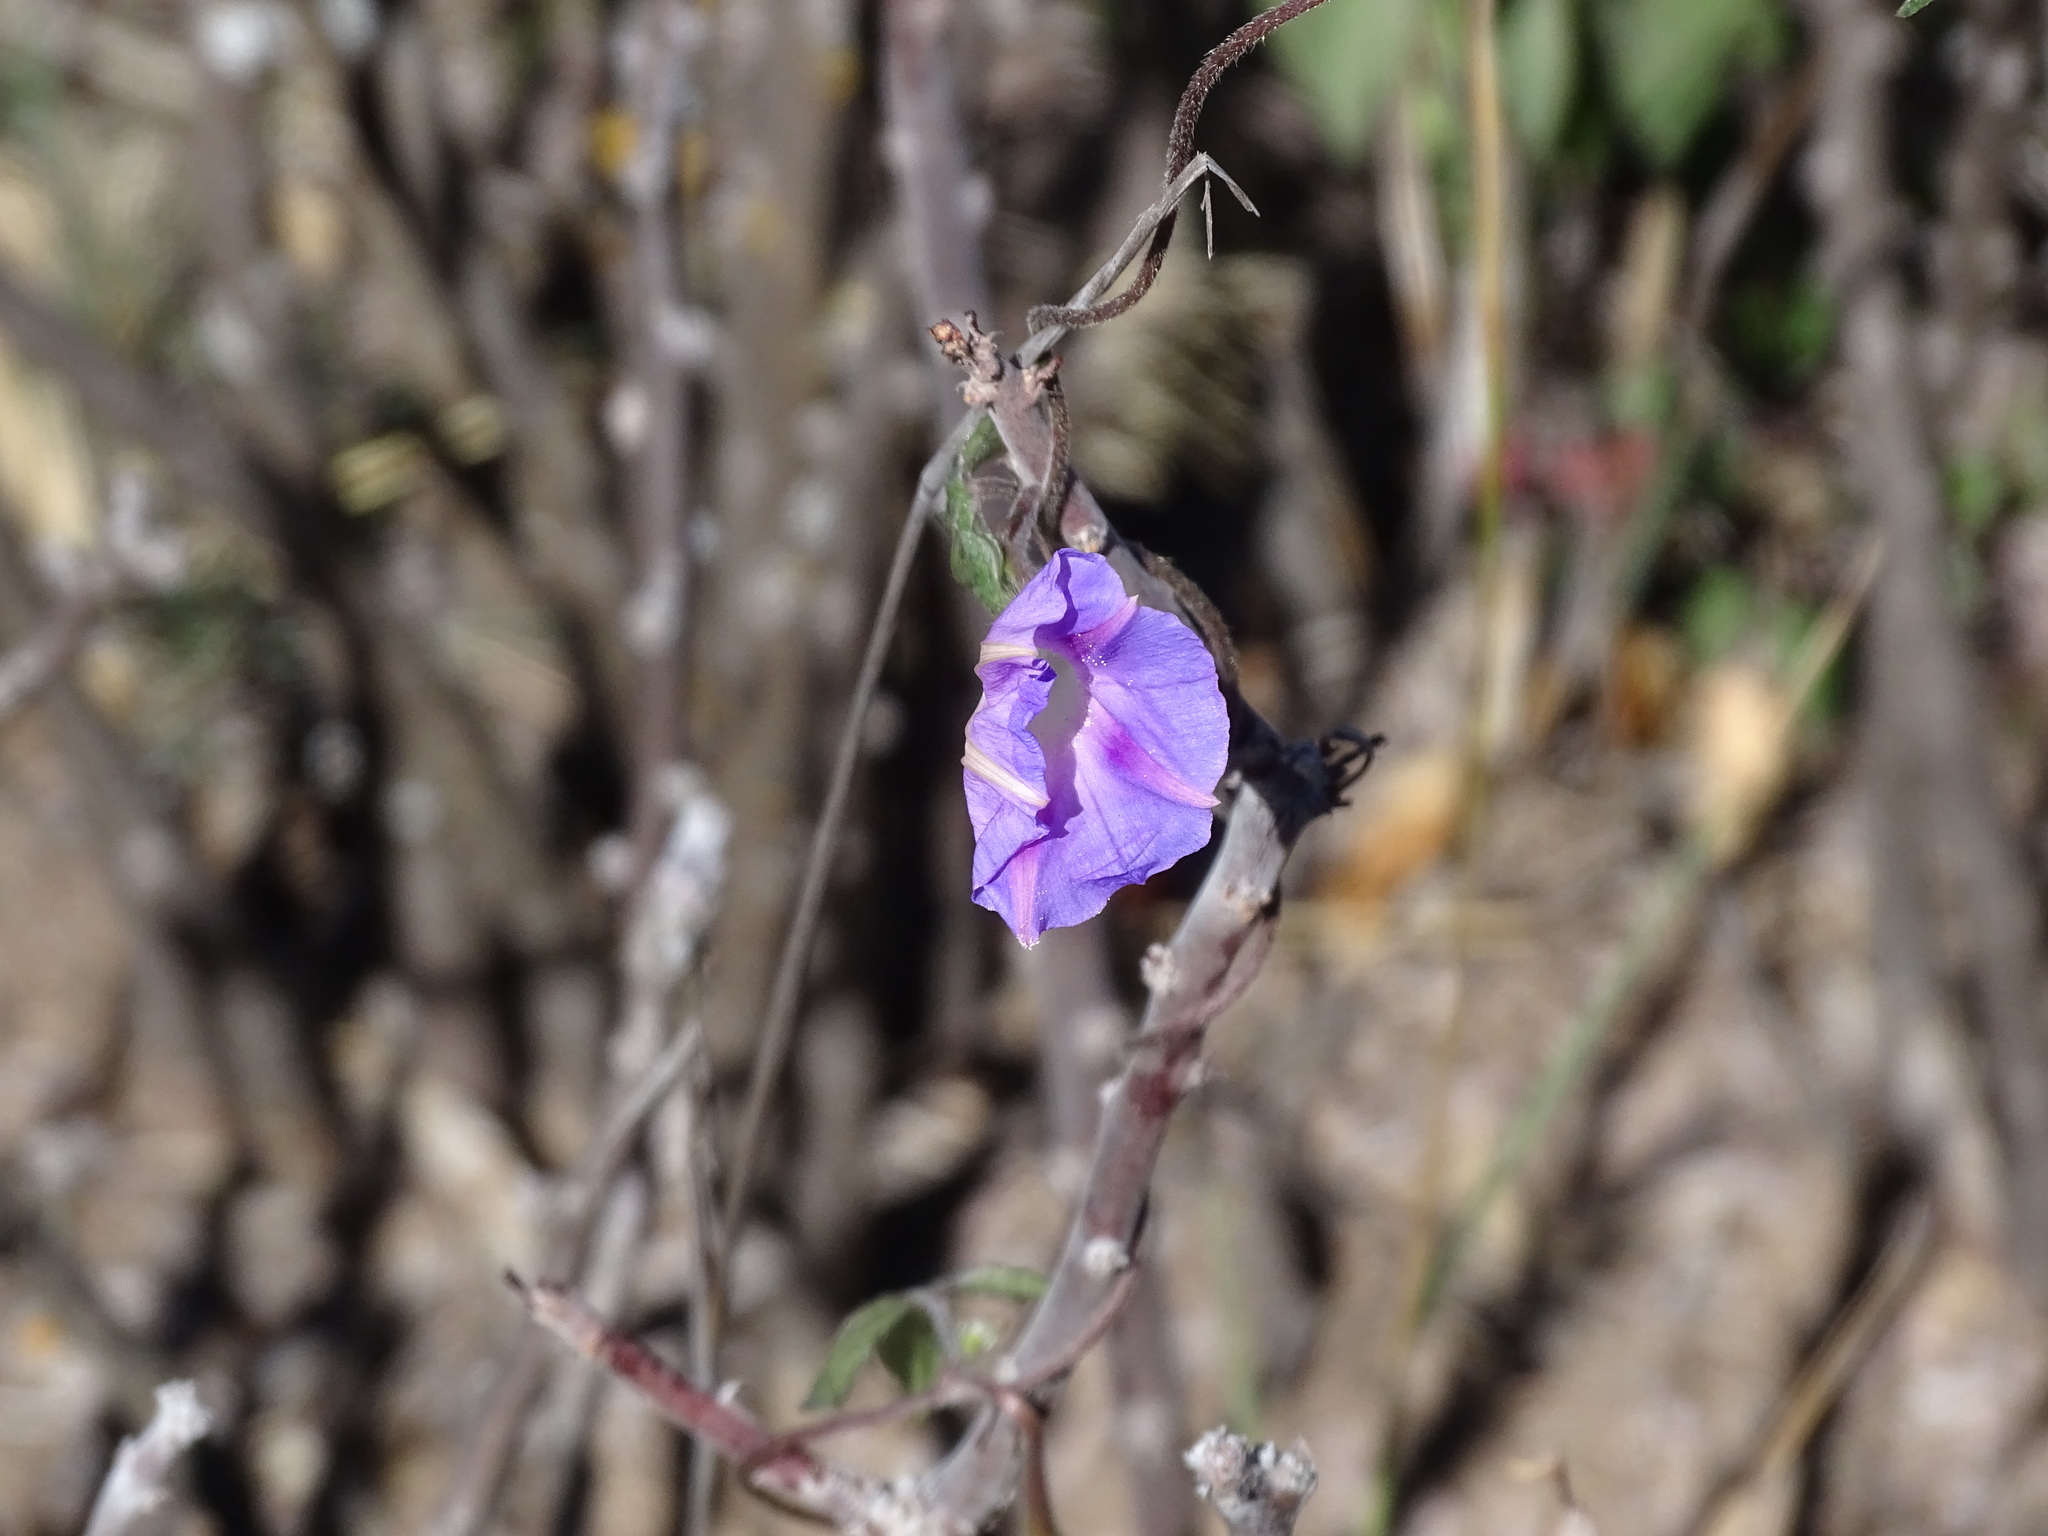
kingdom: Plantae
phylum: Tracheophyta
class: Magnoliopsida
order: Solanales
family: Convolvulaceae
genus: Ipomoea
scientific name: Ipomoea purpurea
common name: Common morning-glory
